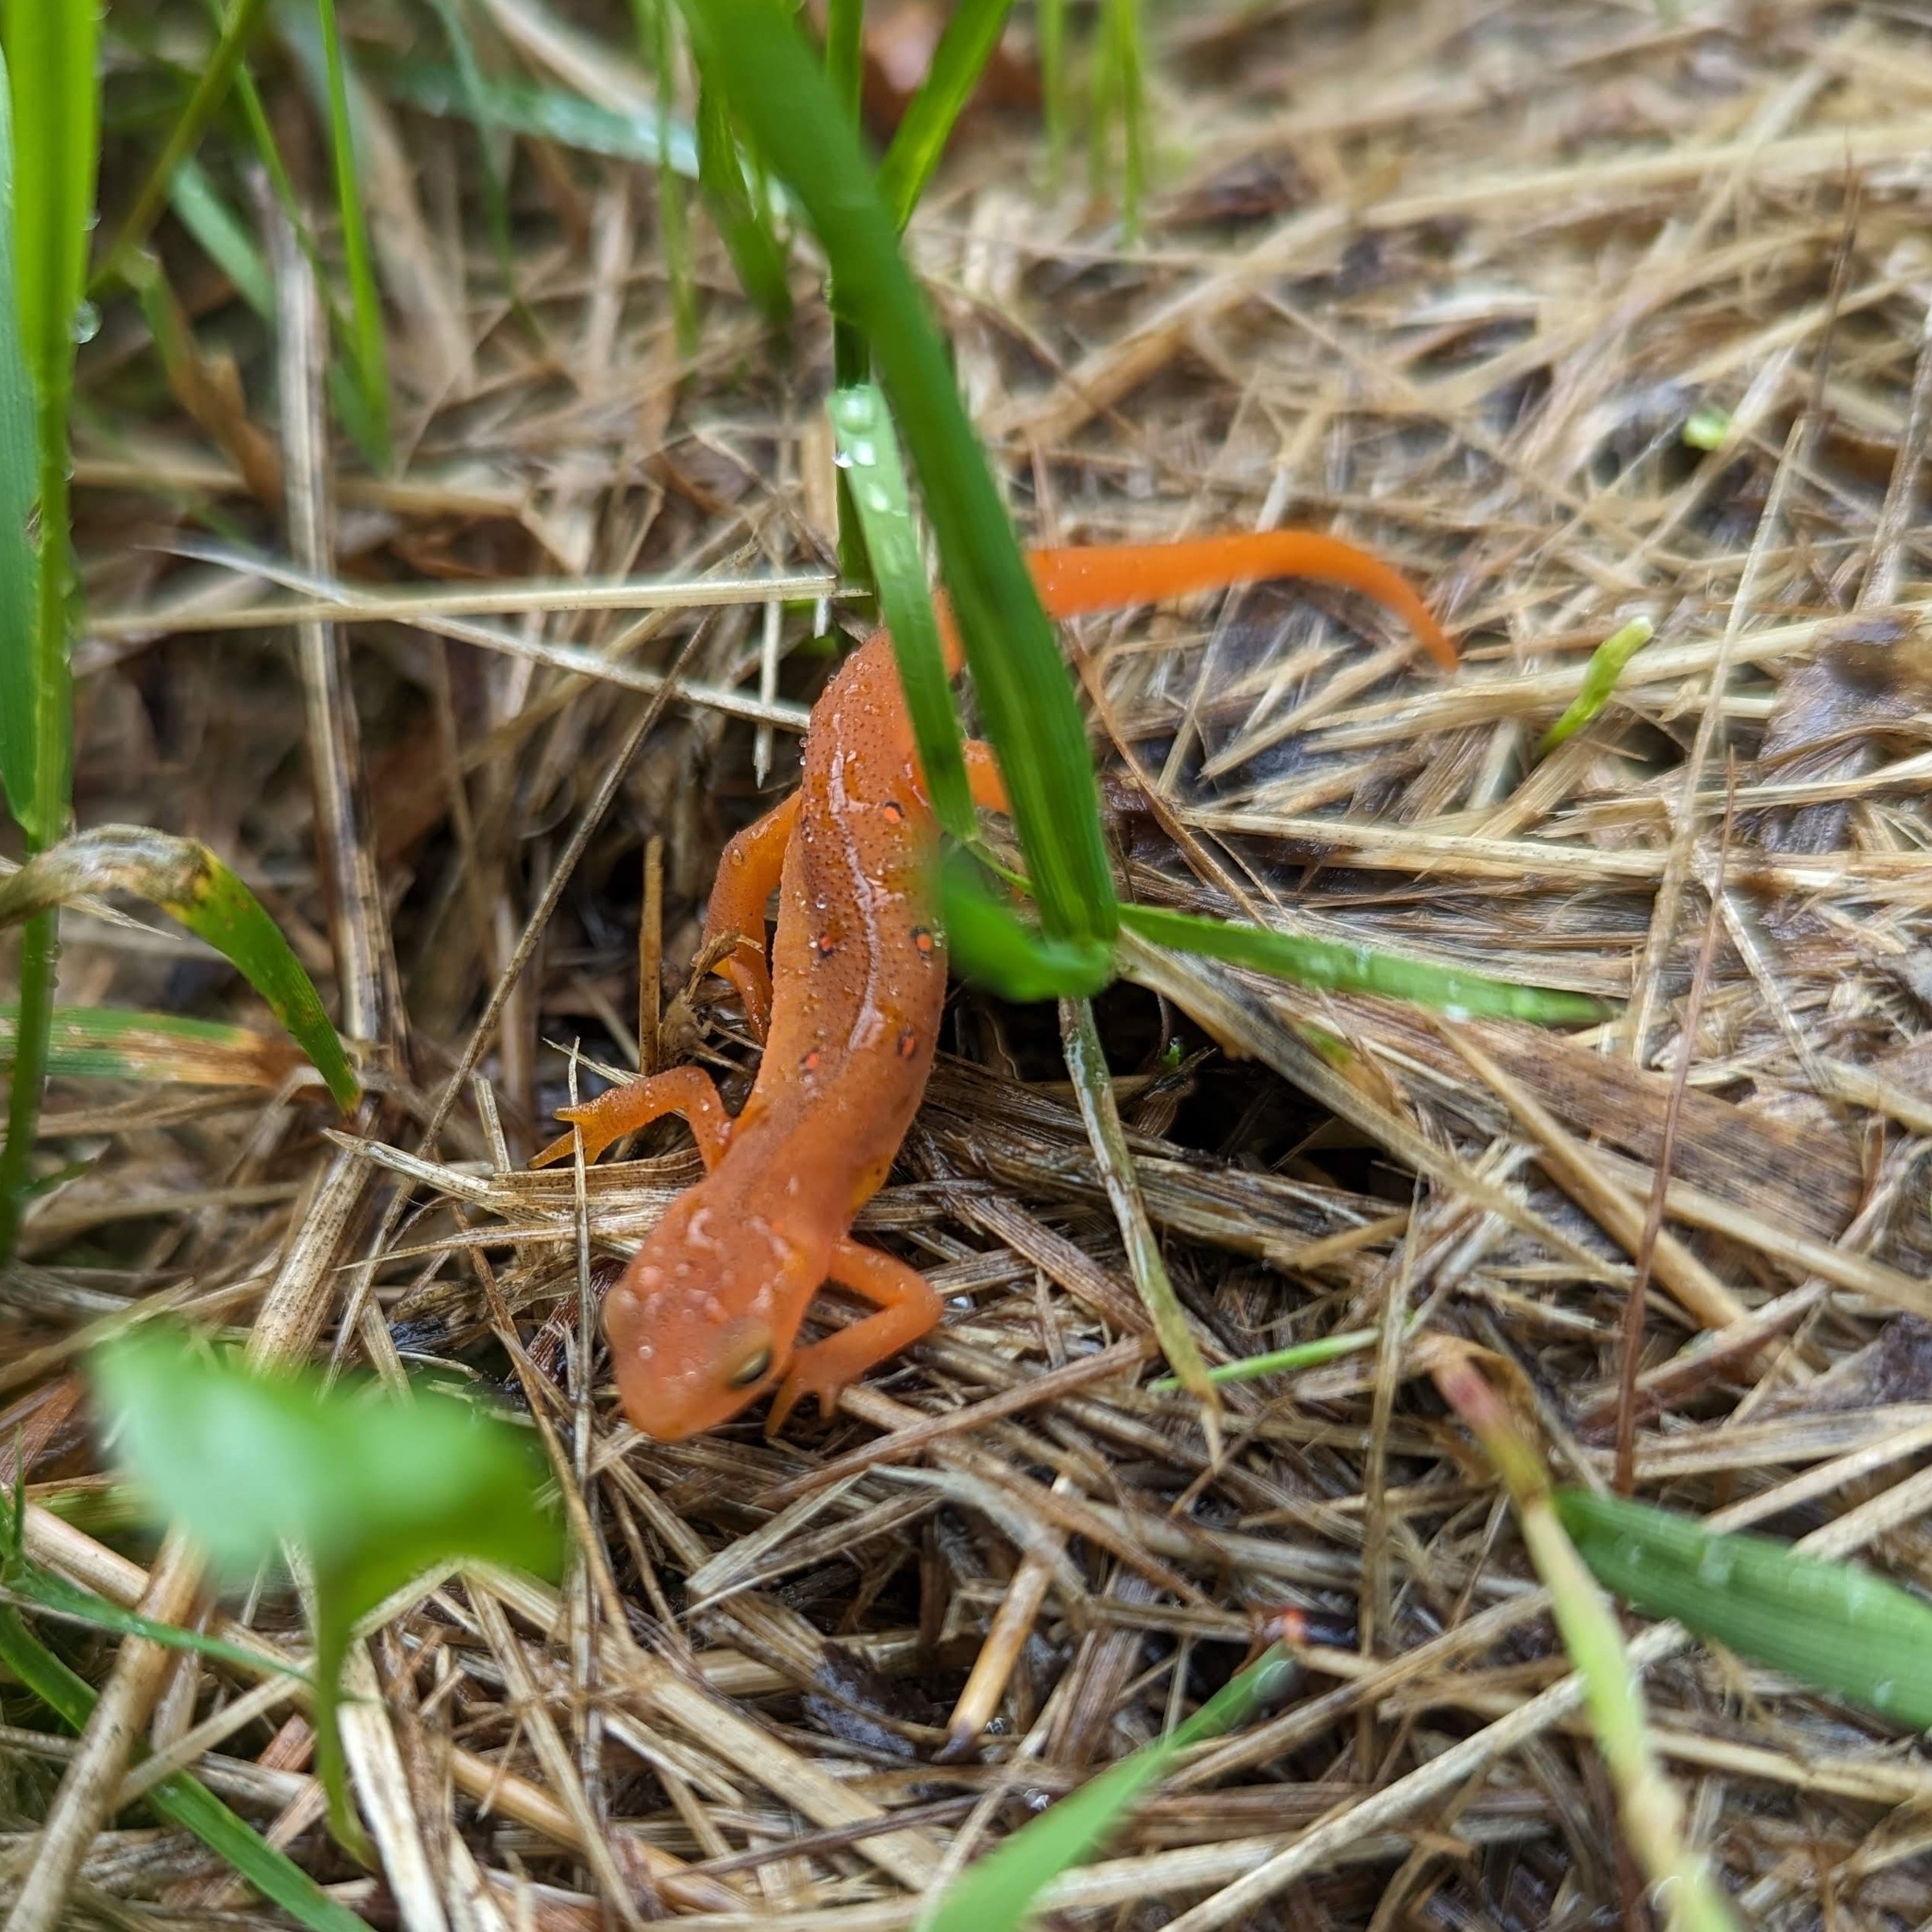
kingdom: Animalia
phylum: Chordata
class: Amphibia
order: Caudata
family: Salamandridae
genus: Notophthalmus
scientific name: Notophthalmus viridescens
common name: Eastern newt
